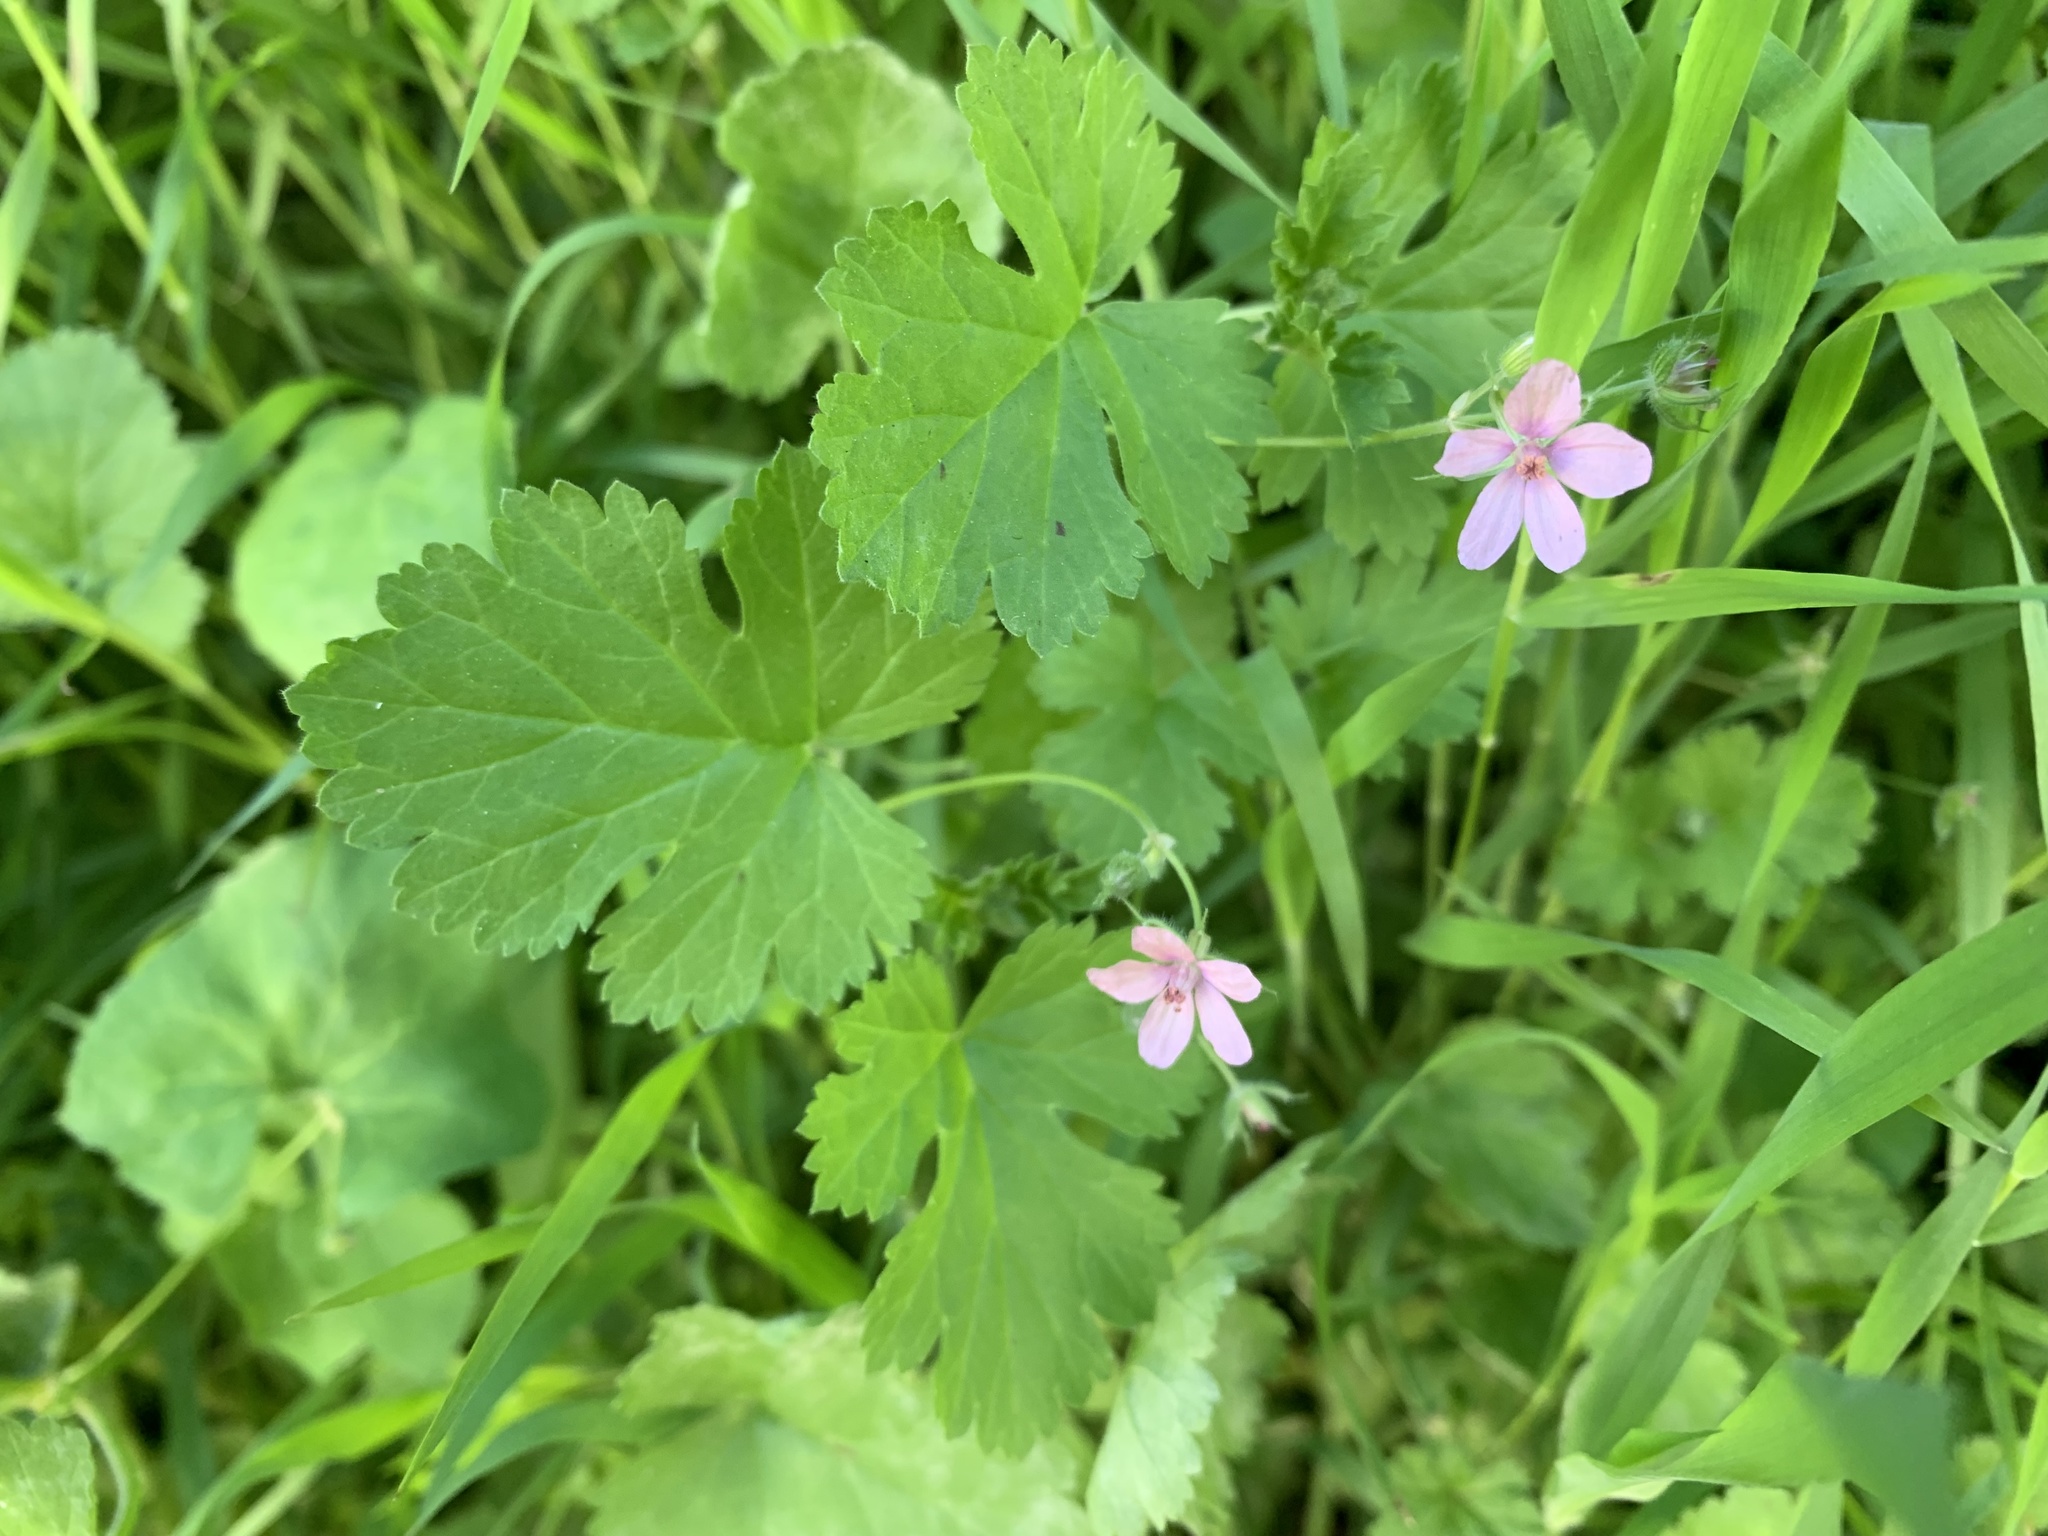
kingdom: Plantae
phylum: Tracheophyta
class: Magnoliopsida
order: Geraniales
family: Geraniaceae
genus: Erodium
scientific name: Erodium malacoides
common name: Soft stork's-bill
